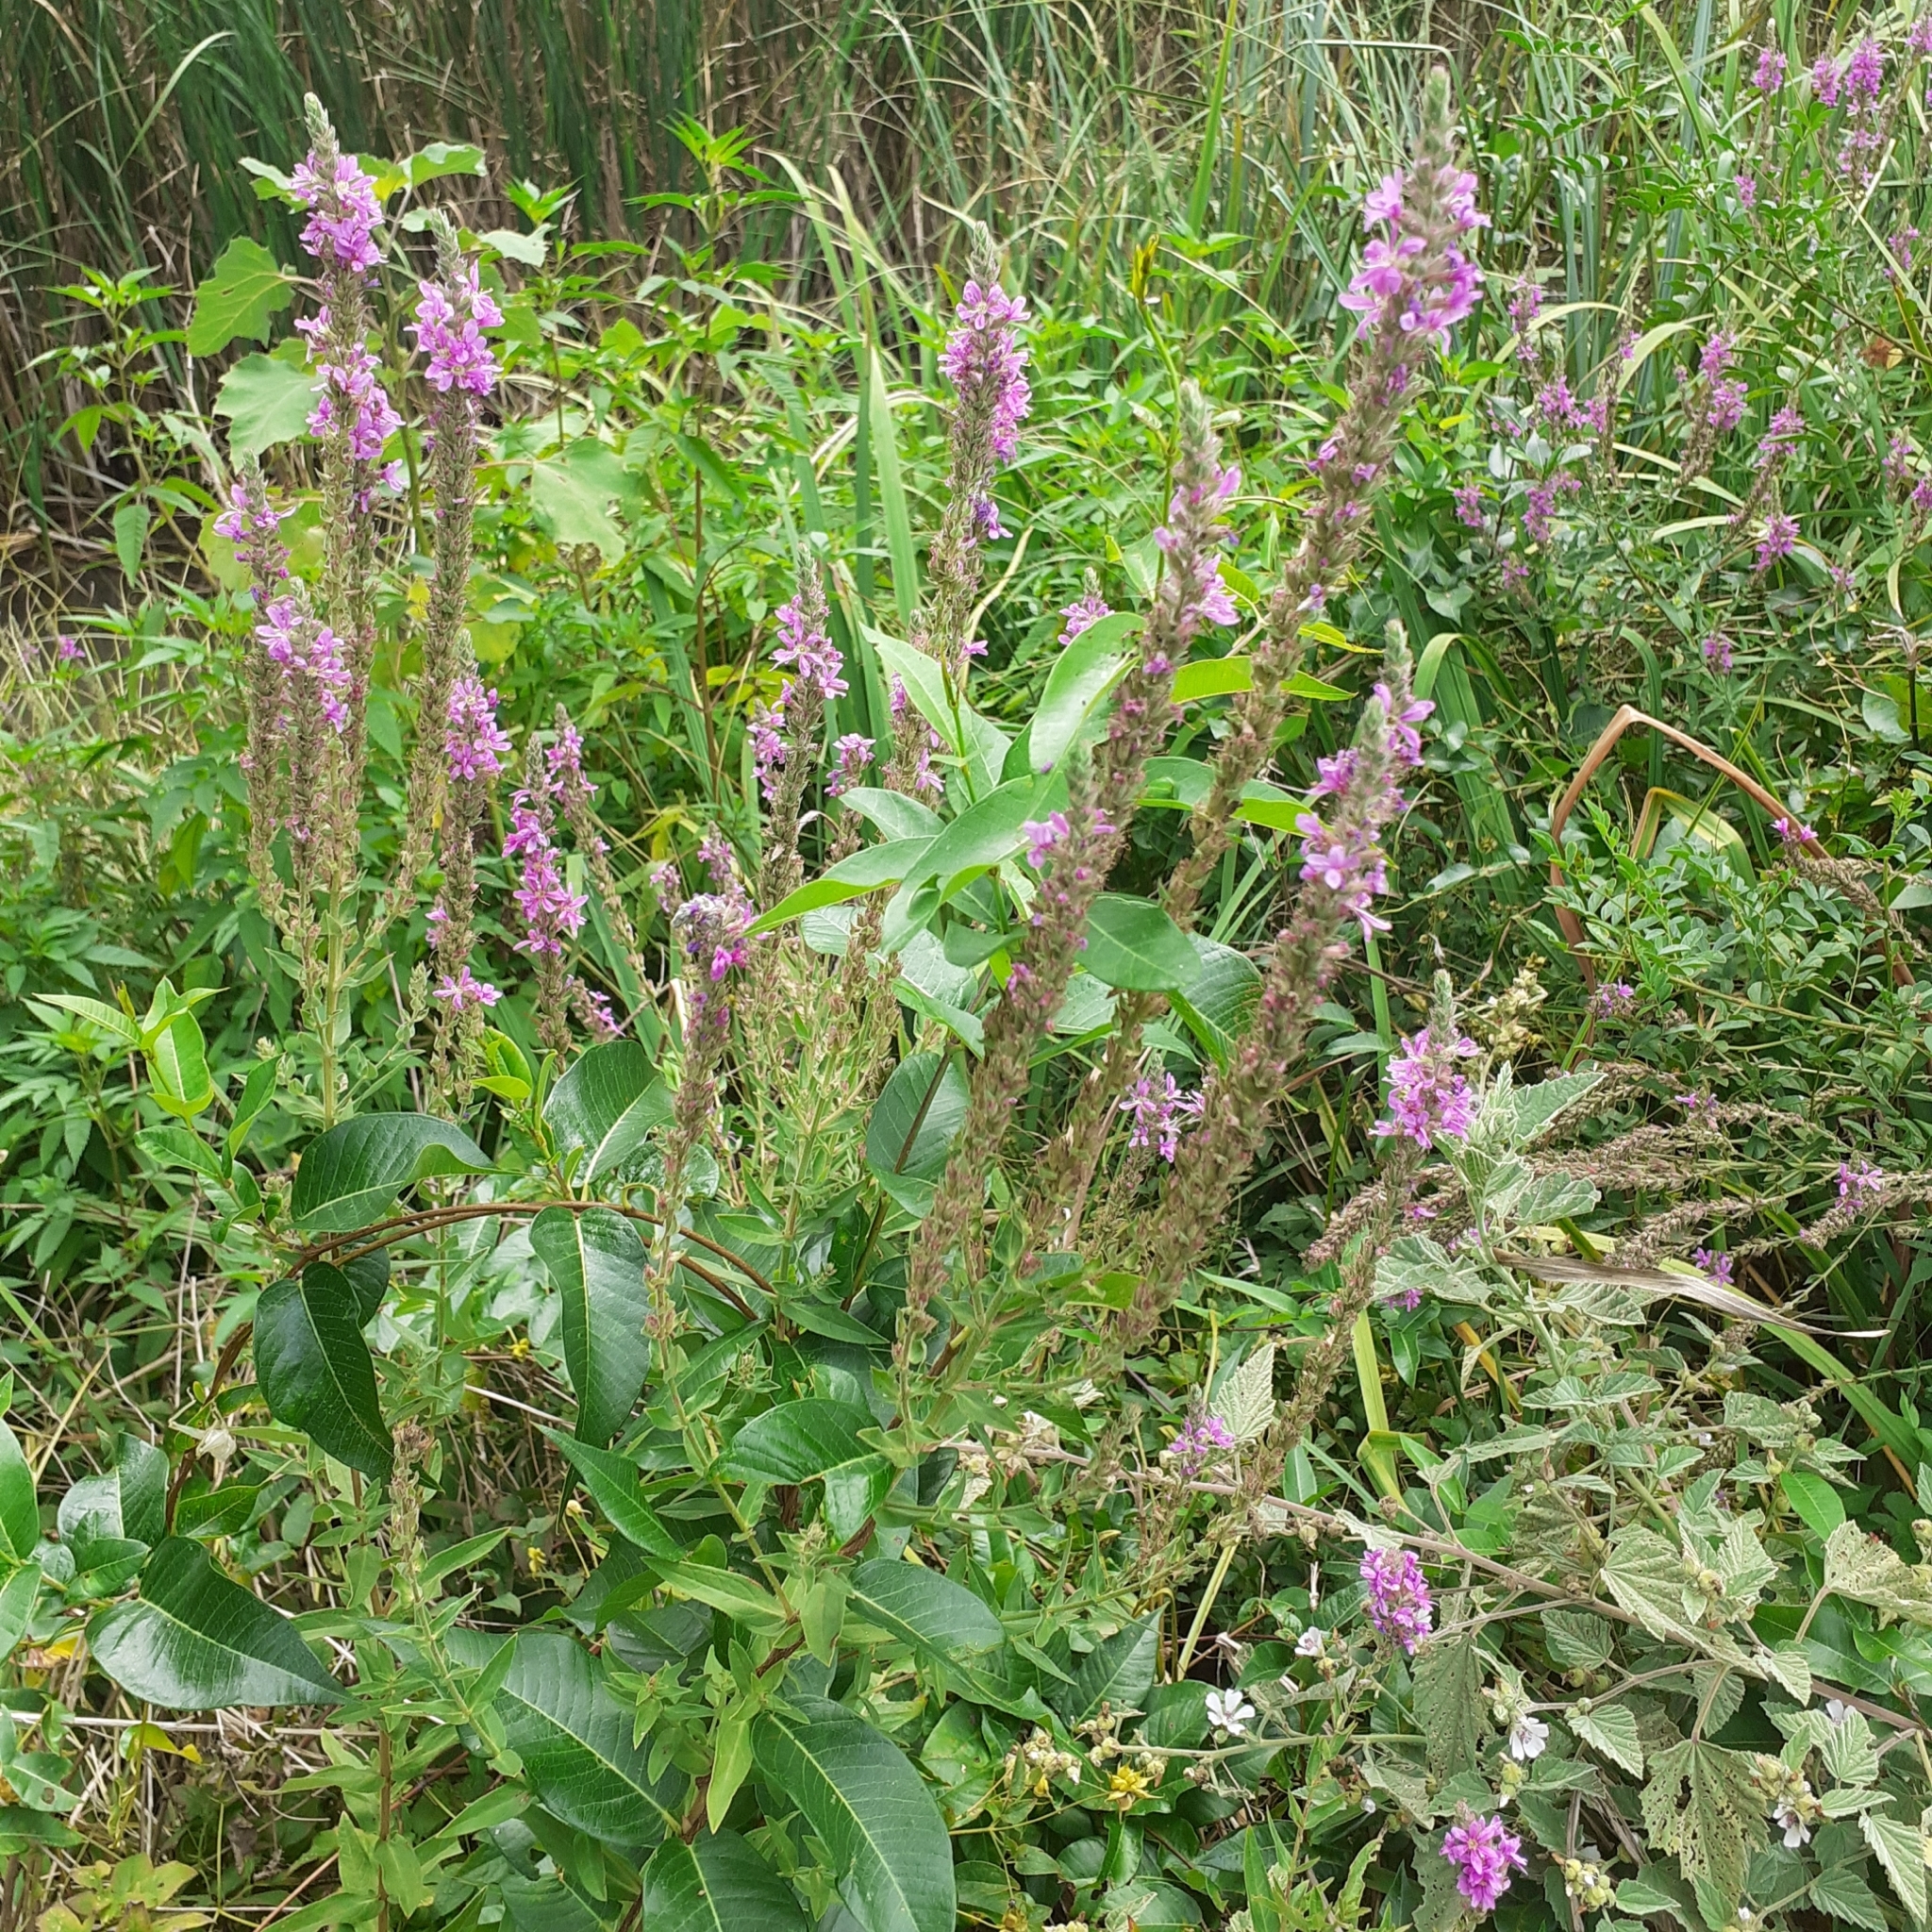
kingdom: Plantae
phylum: Tracheophyta
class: Magnoliopsida
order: Myrtales
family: Lythraceae
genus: Lythrum
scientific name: Lythrum salicaria
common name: Purple loosestrife
